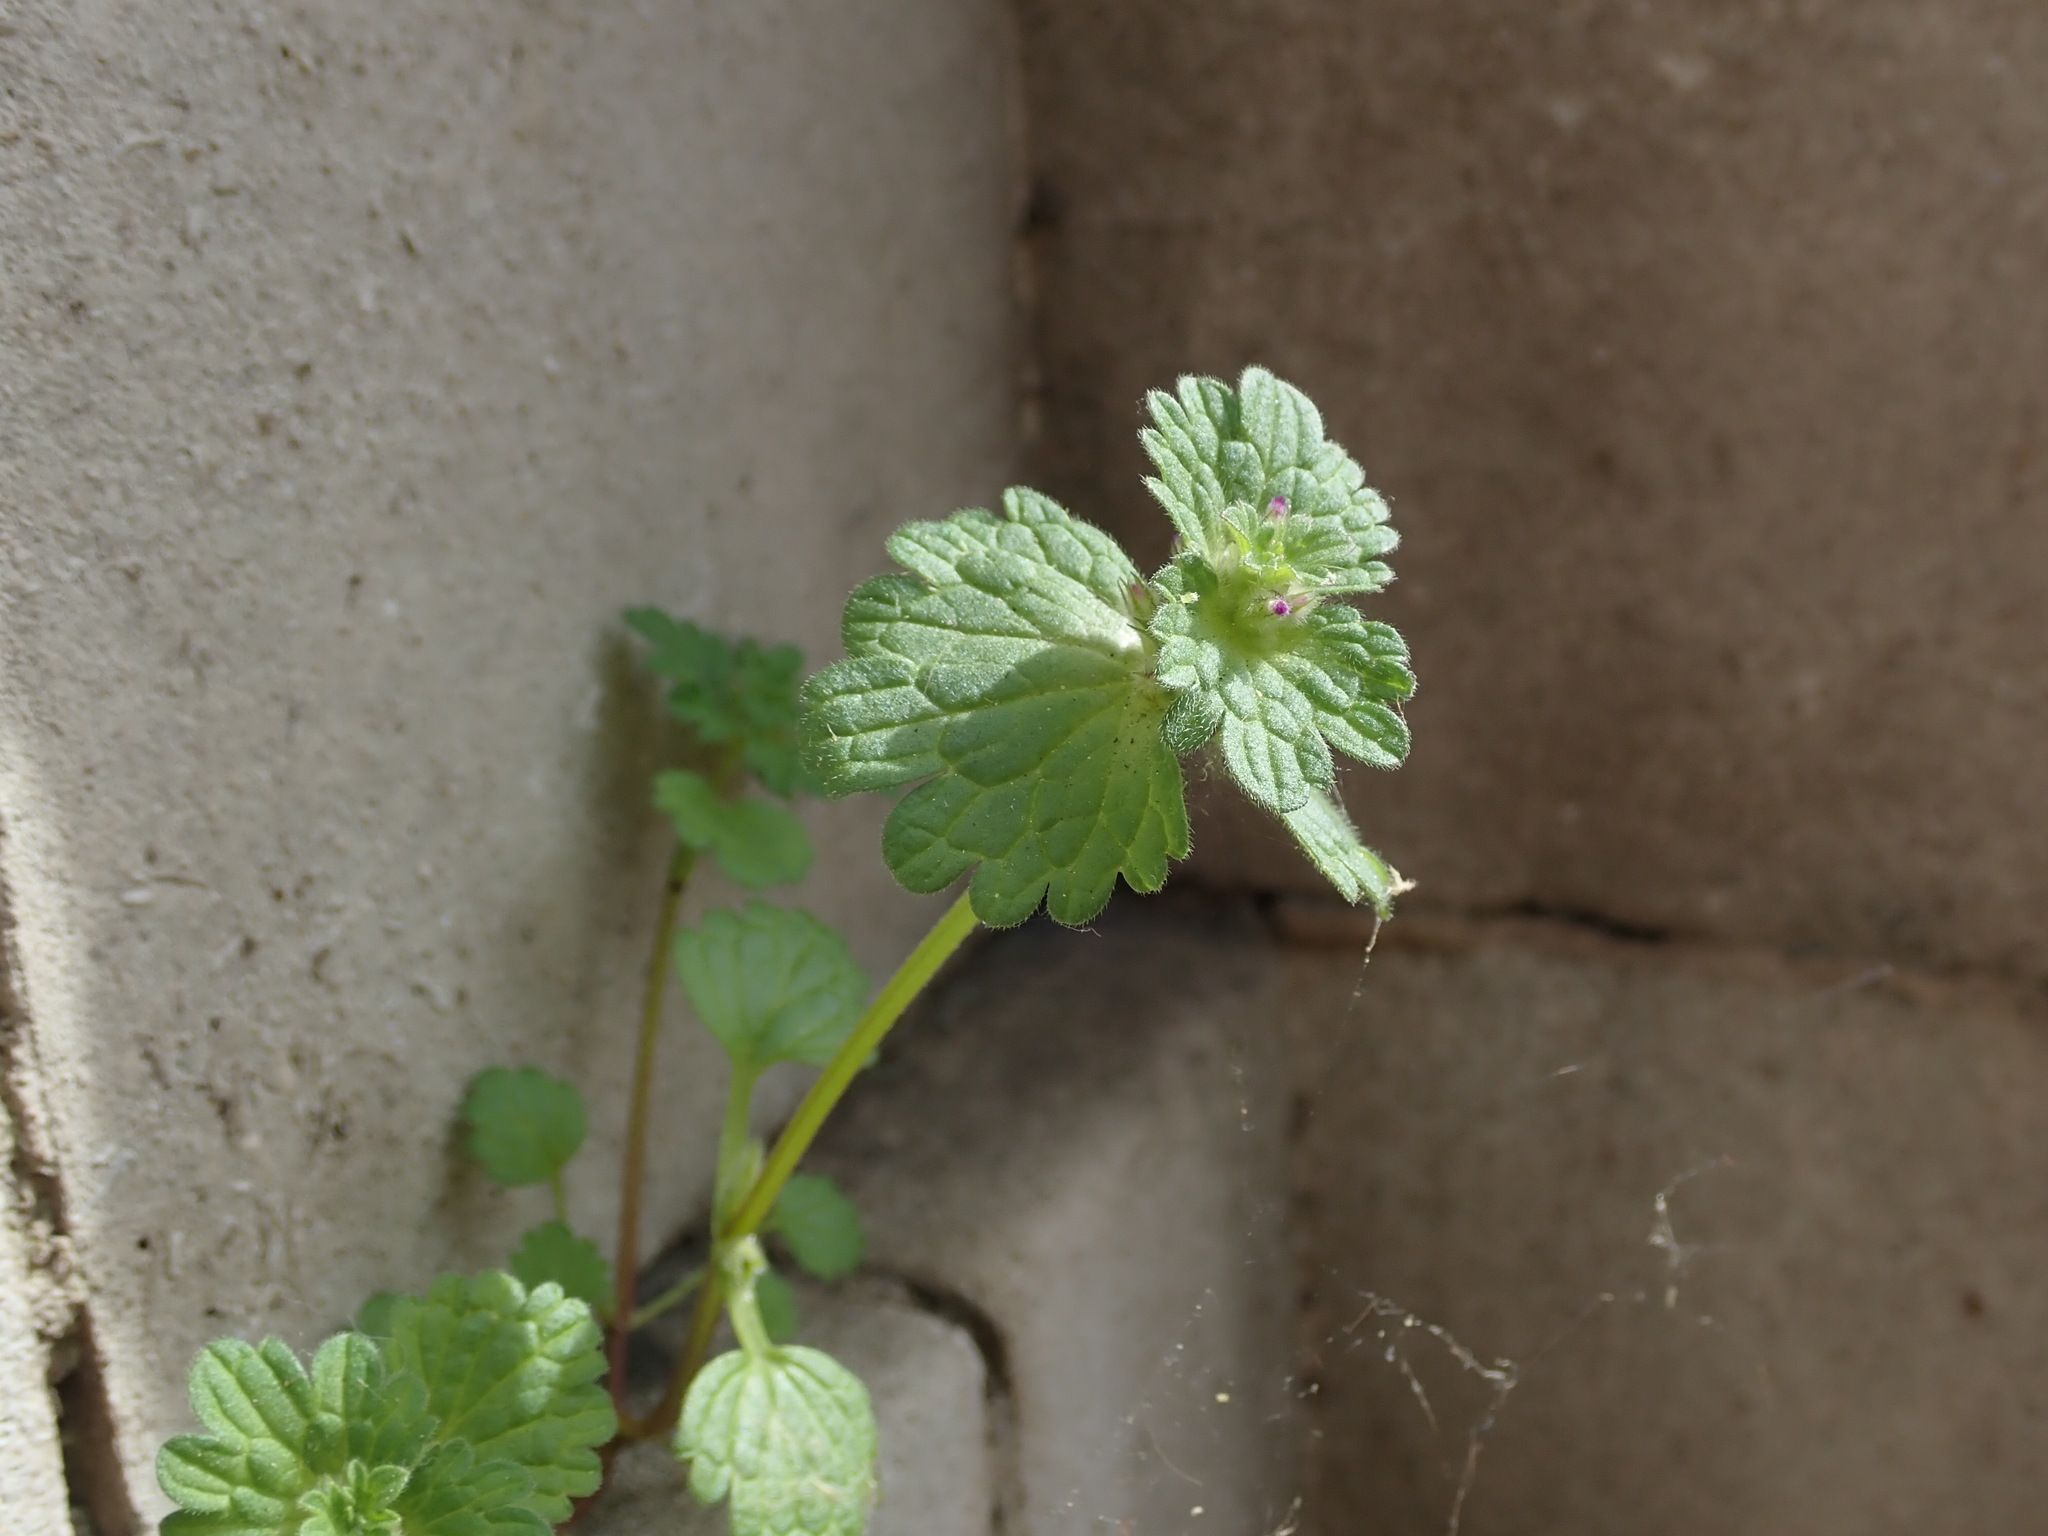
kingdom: Plantae
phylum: Tracheophyta
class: Magnoliopsida
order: Lamiales
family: Lamiaceae
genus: Lamium
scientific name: Lamium amplexicaule
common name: Henbit dead-nettle
